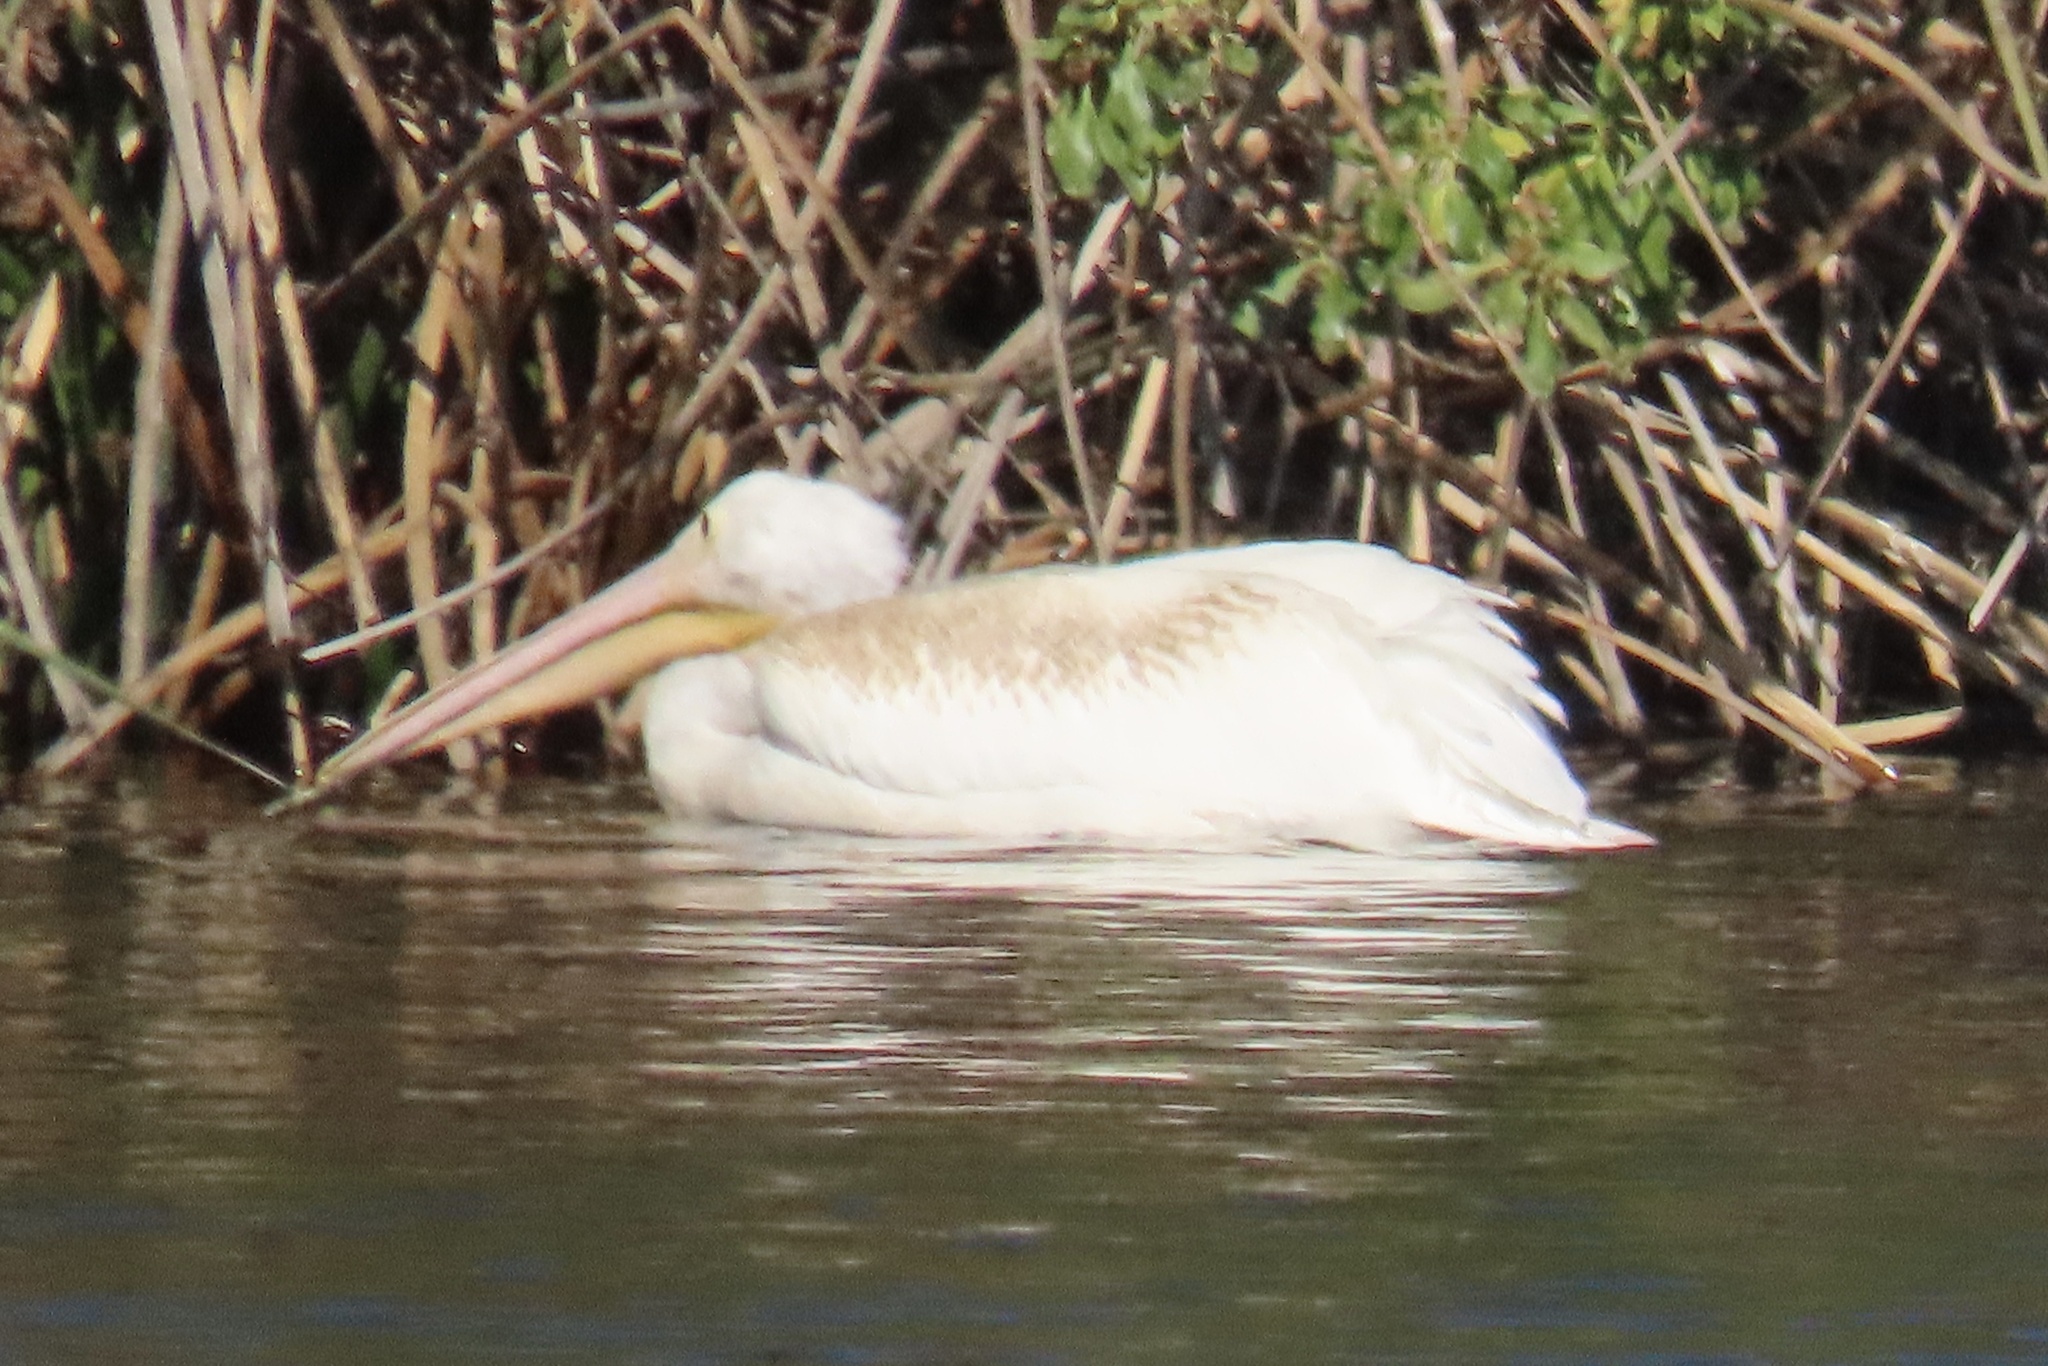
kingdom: Animalia
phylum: Chordata
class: Aves
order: Pelecaniformes
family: Pelecanidae
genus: Pelecanus
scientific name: Pelecanus erythrorhynchos
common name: American white pelican
